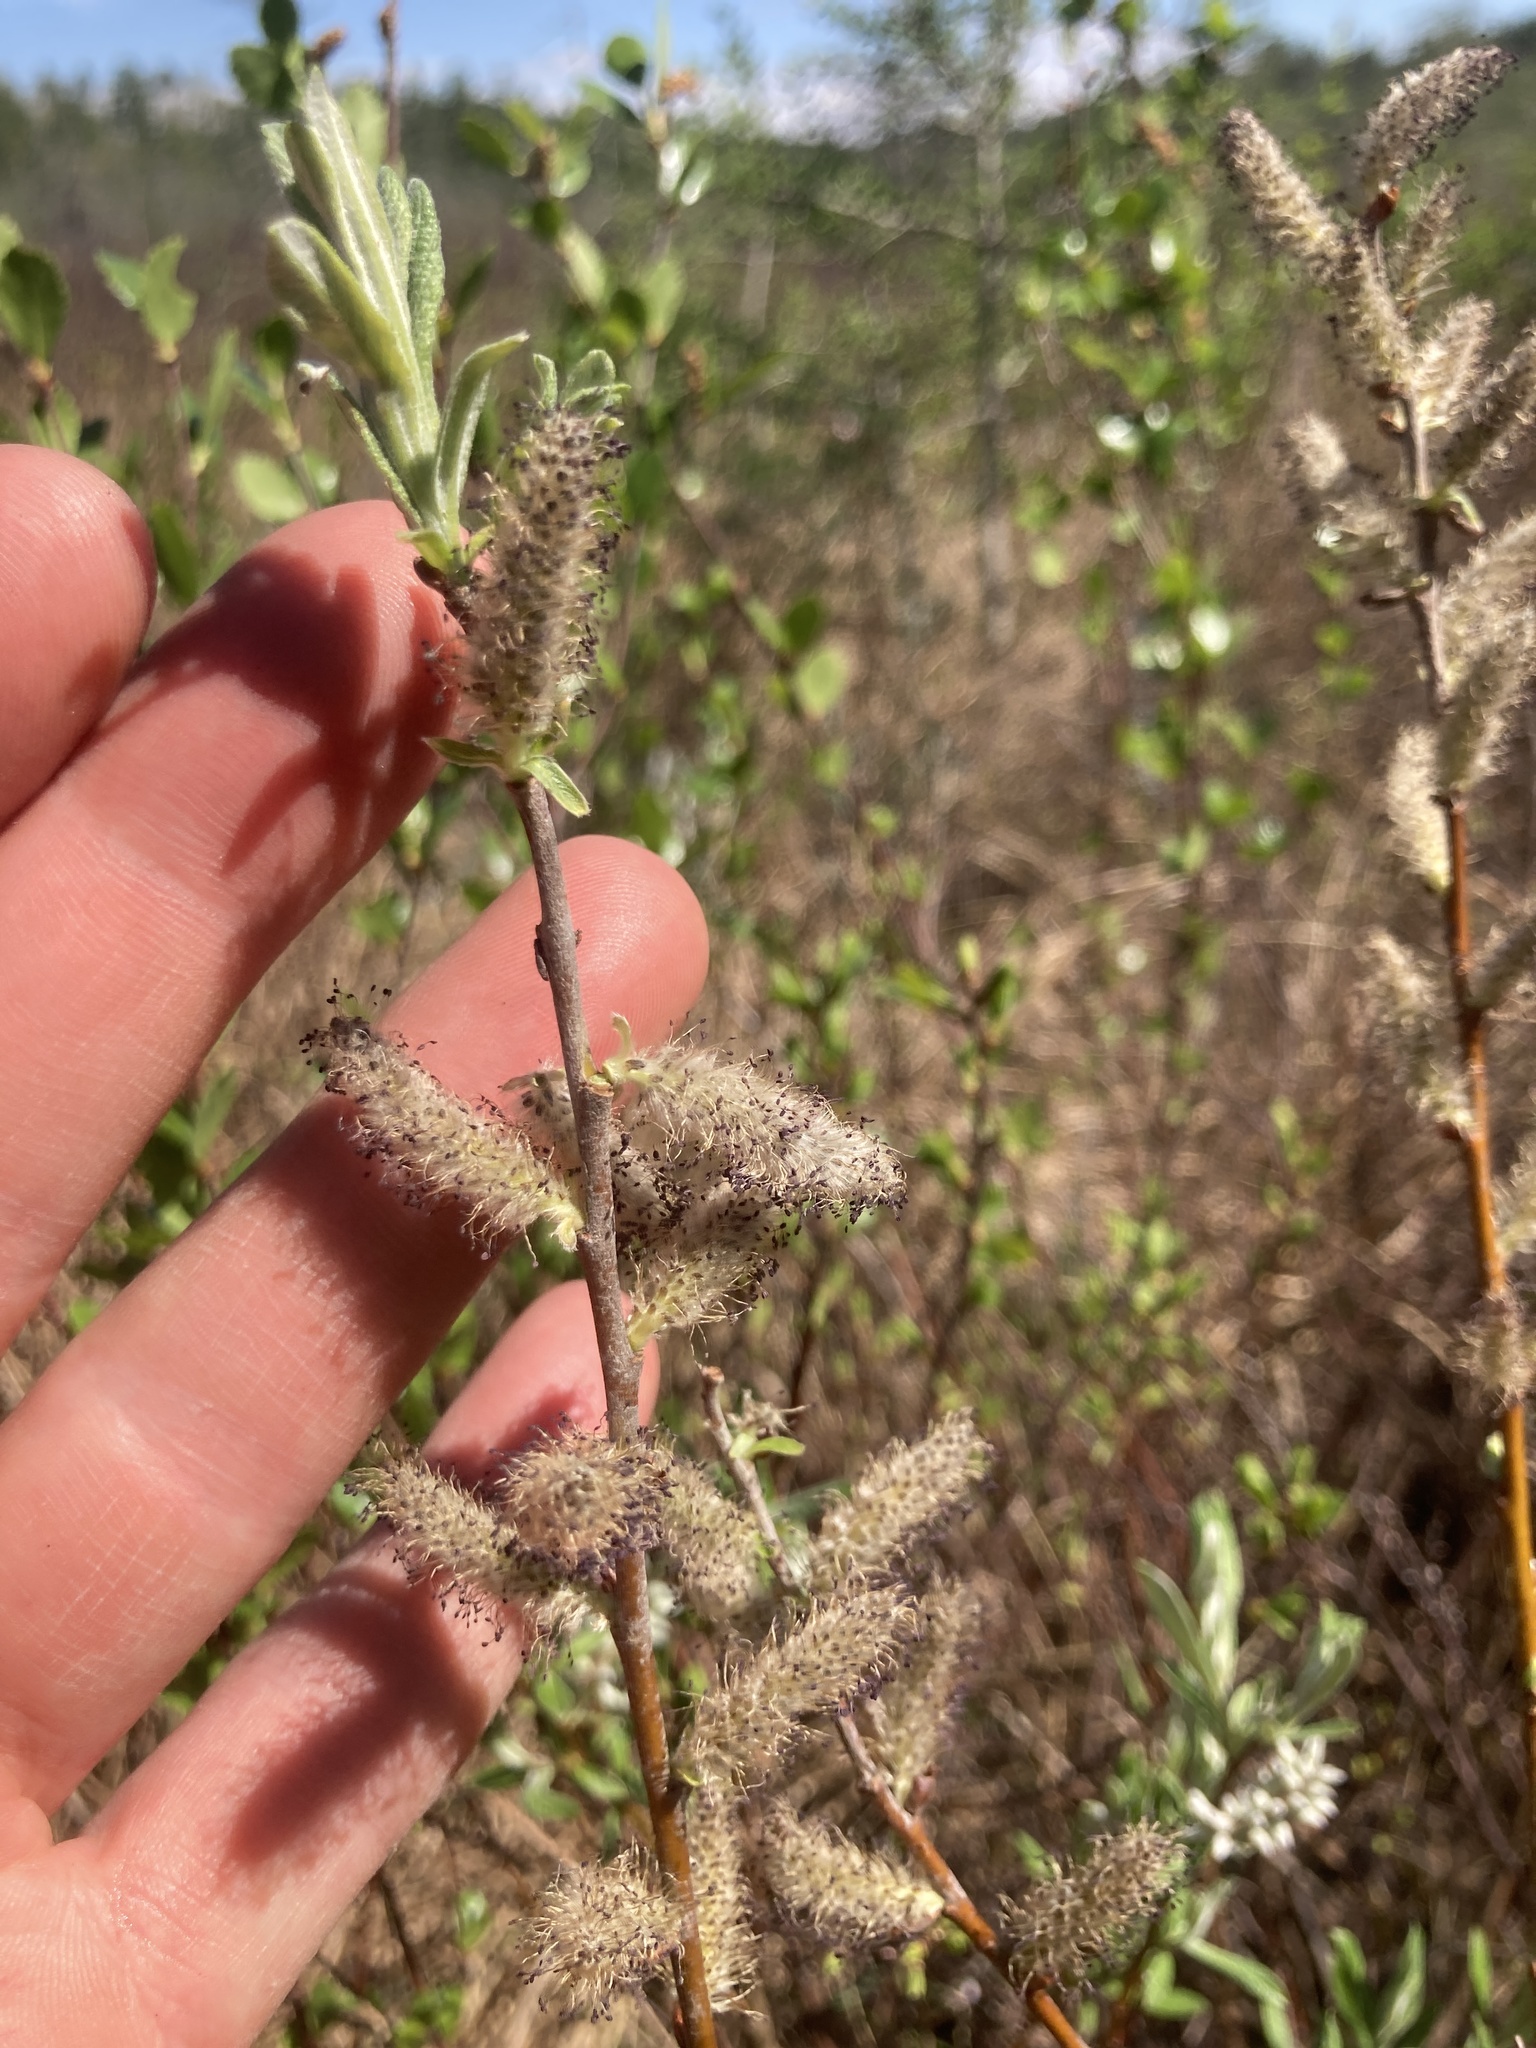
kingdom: Plantae
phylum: Tracheophyta
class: Magnoliopsida
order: Malpighiales
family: Salicaceae
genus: Salix
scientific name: Salix candida
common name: Hoary willow
